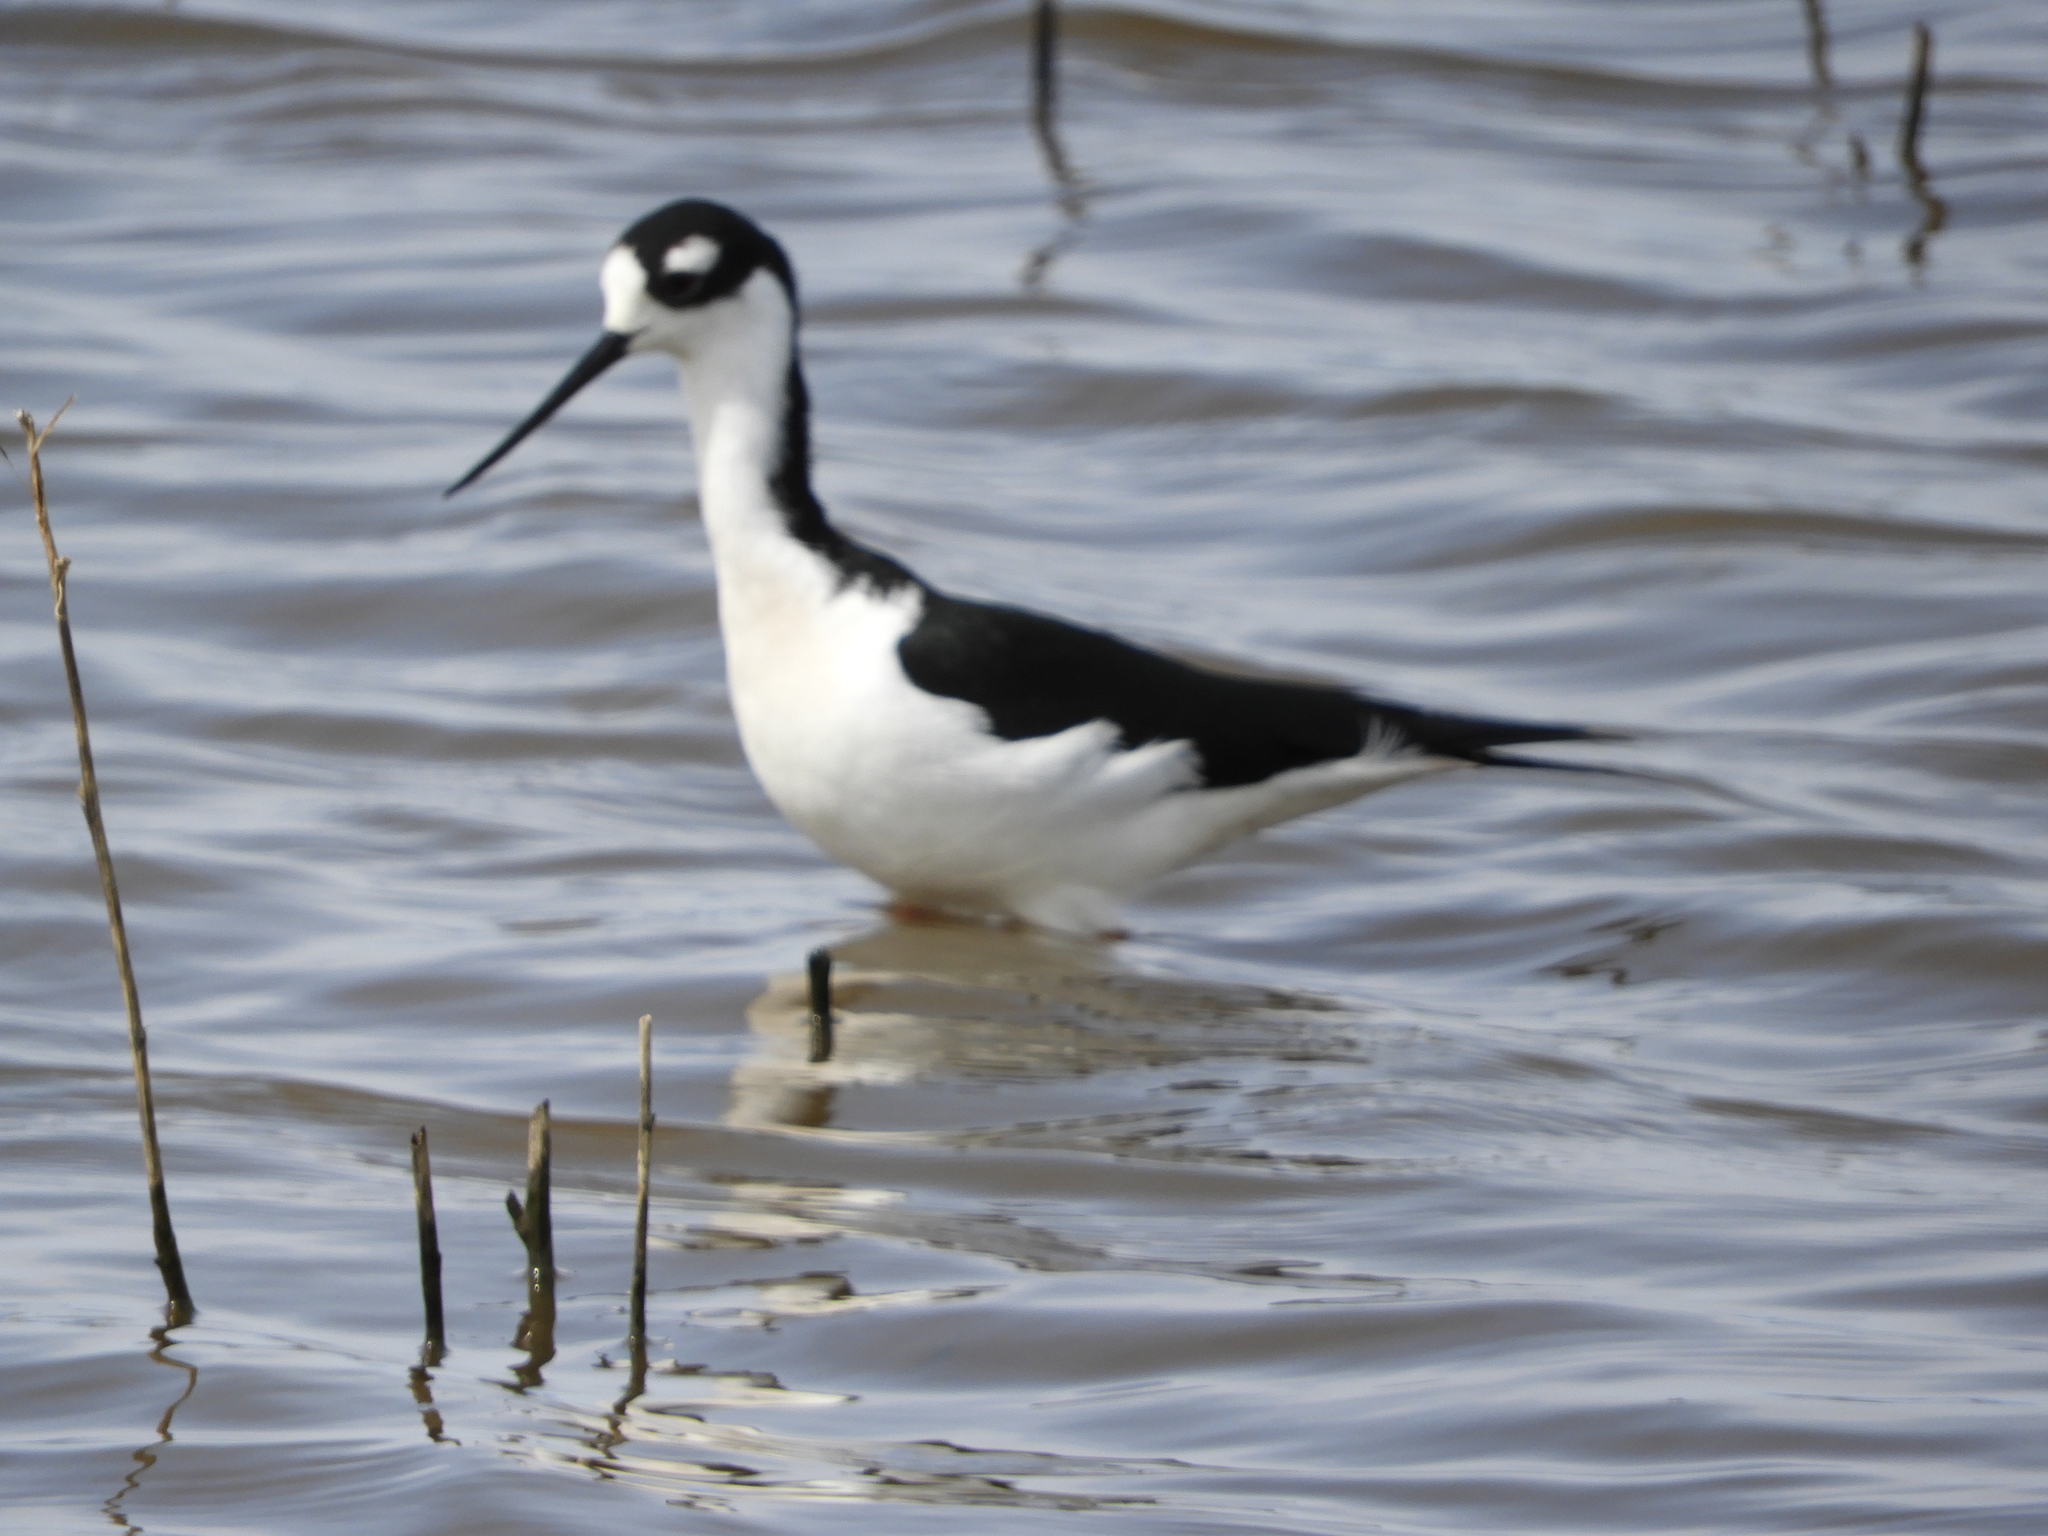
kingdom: Animalia
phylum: Chordata
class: Aves
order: Charadriiformes
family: Recurvirostridae
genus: Himantopus
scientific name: Himantopus mexicanus
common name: Black-necked stilt
